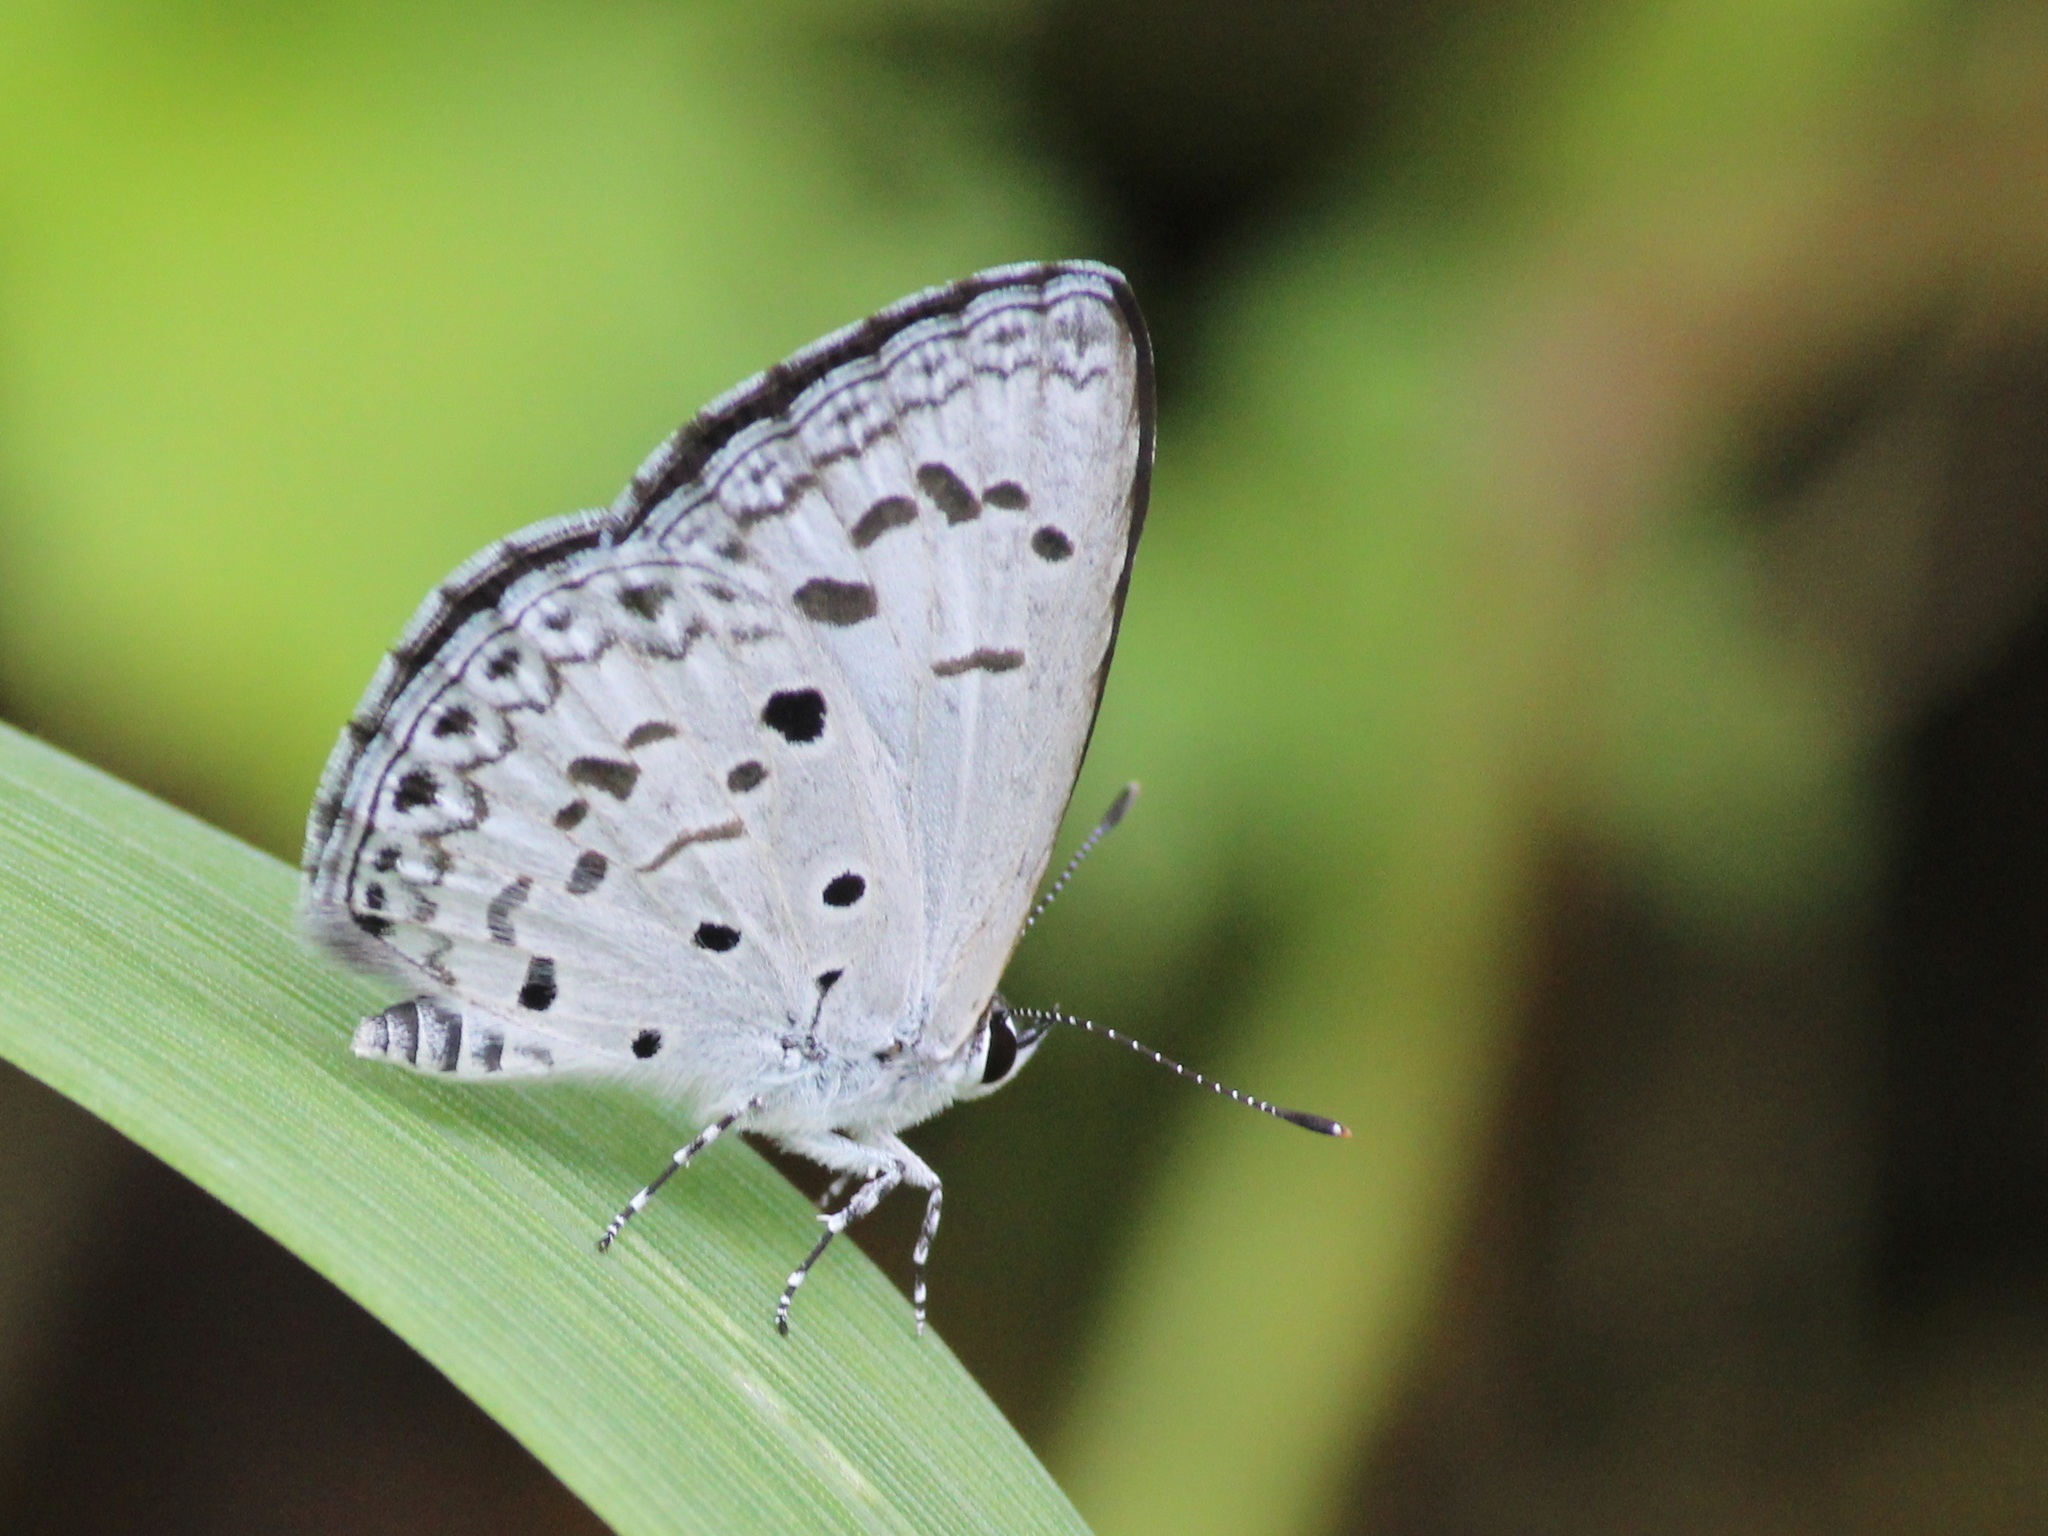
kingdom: Animalia
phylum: Arthropoda
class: Insecta
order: Lepidoptera
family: Lycaenidae
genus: Acytolepis
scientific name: Acytolepis puspa
